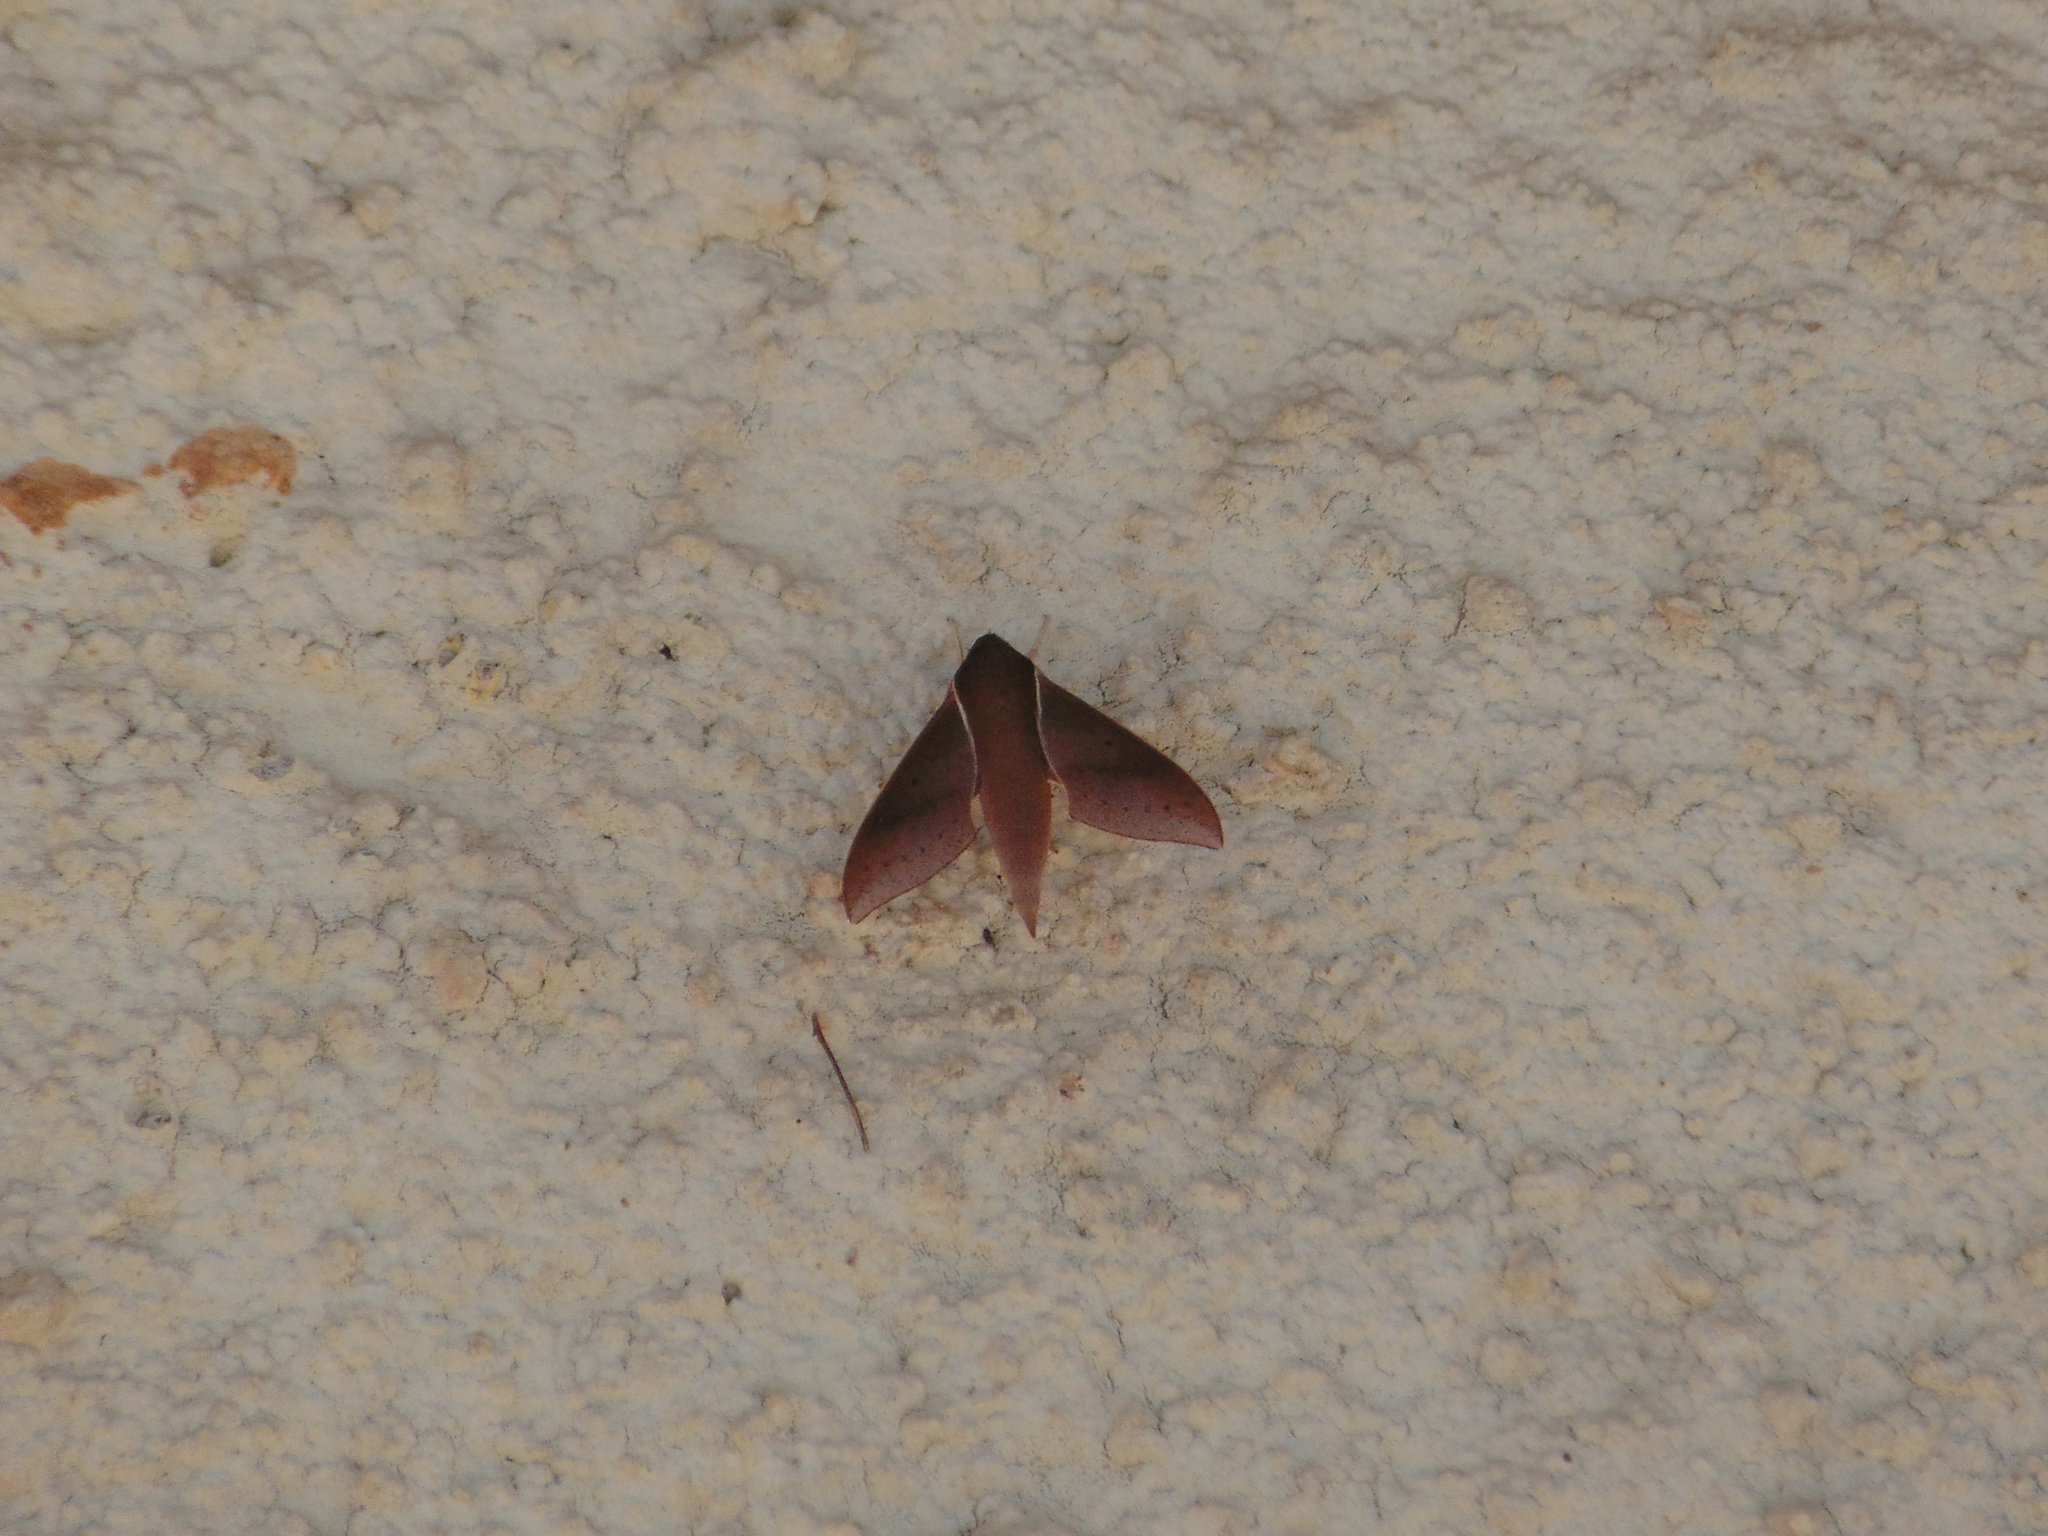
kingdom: Animalia
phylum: Arthropoda
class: Insecta
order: Lepidoptera
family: Sphingidae
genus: Xylophanes
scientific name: Xylophanes porcus
